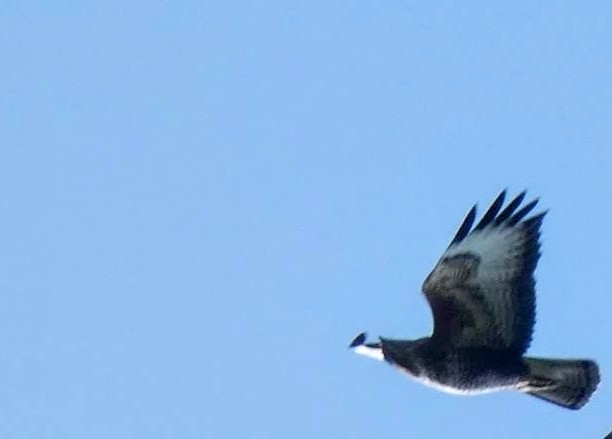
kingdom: Animalia
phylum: Chordata
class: Aves
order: Accipitriformes
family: Accipitridae
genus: Buteo
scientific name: Buteo buteo
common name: Common buzzard
